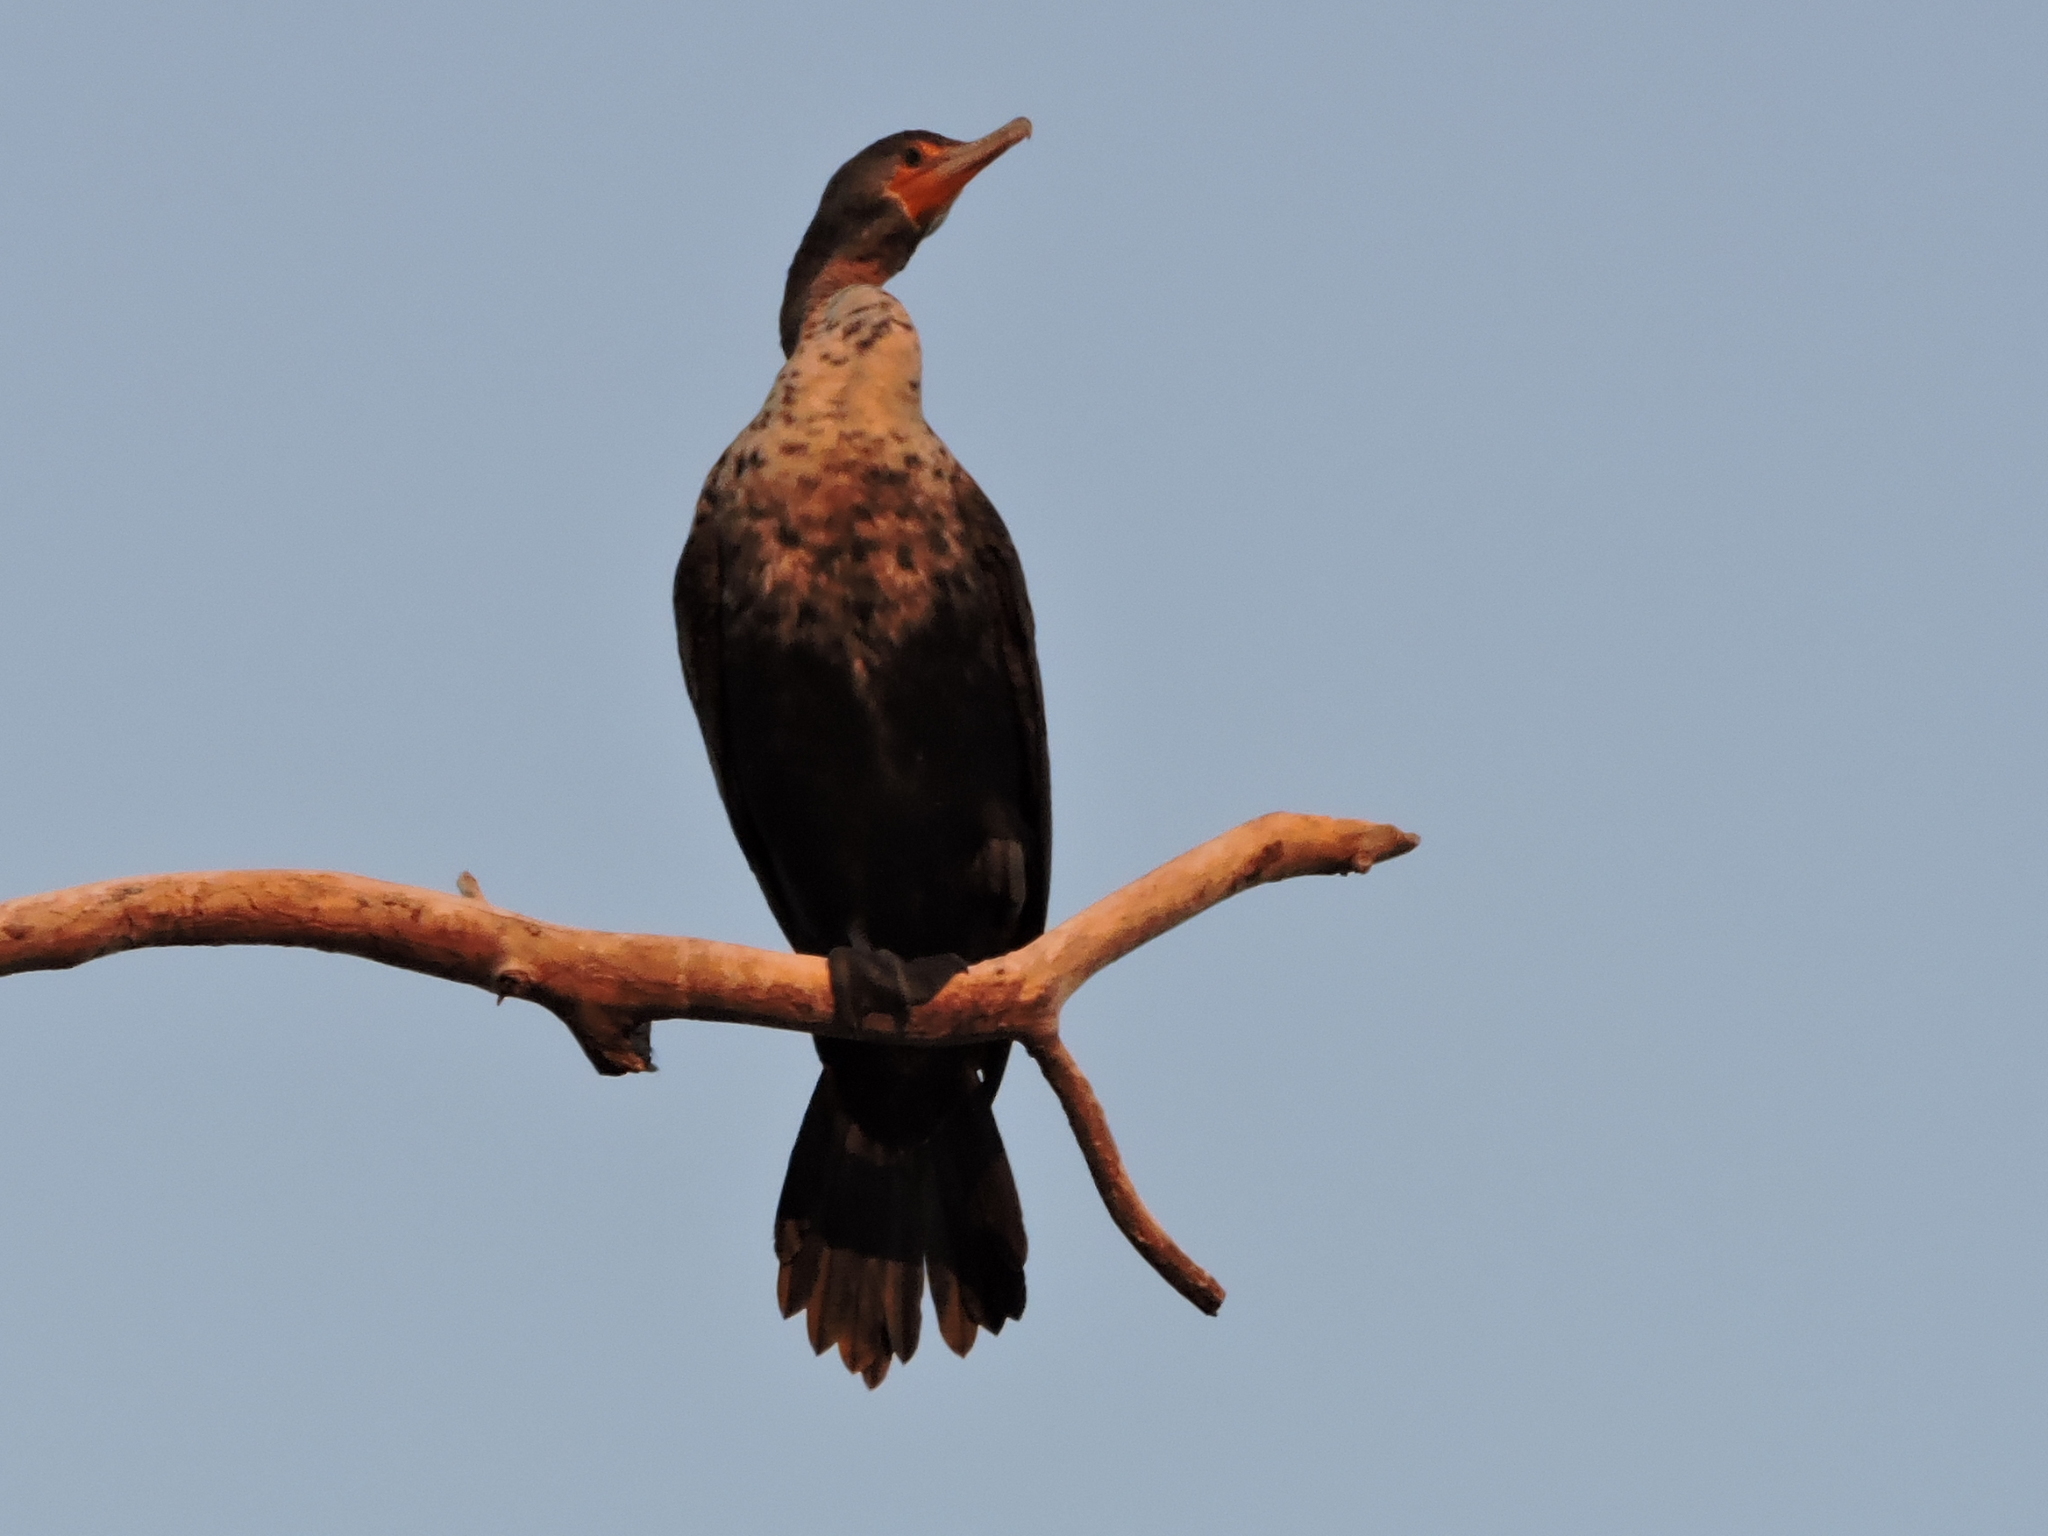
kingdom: Animalia
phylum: Chordata
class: Aves
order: Suliformes
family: Phalacrocoracidae
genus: Phalacrocorax
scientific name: Phalacrocorax auritus
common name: Double-crested cormorant
